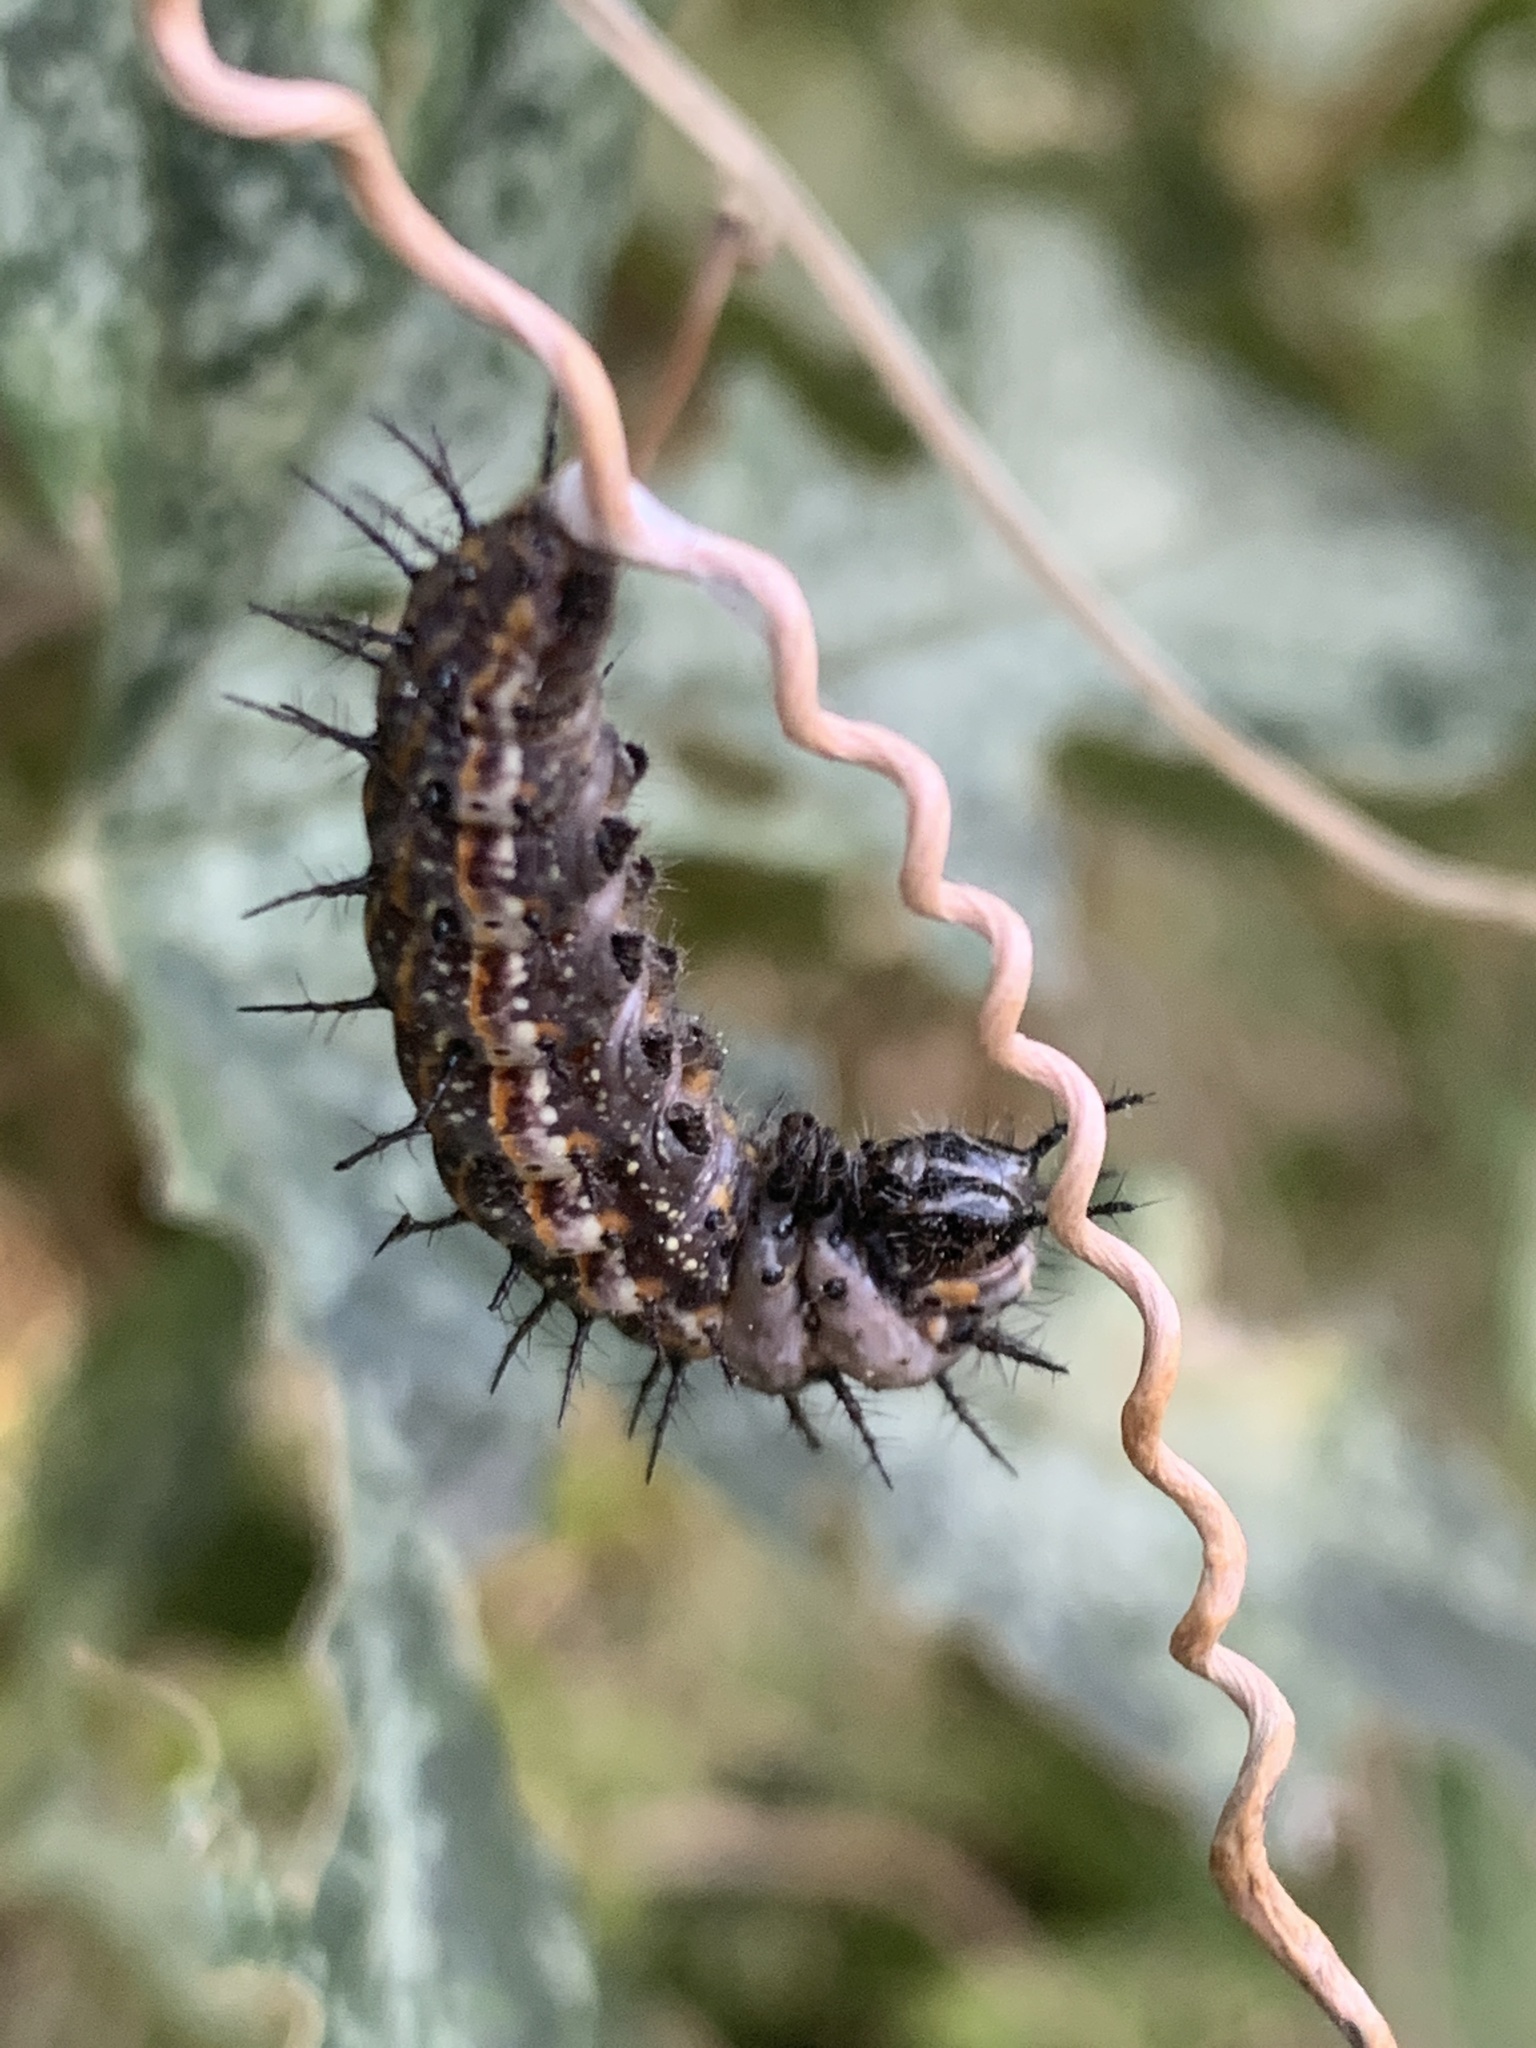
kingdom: Animalia
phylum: Arthropoda
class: Insecta
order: Lepidoptera
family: Nymphalidae
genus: Dione
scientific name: Dione vanillae
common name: Gulf fritillary
